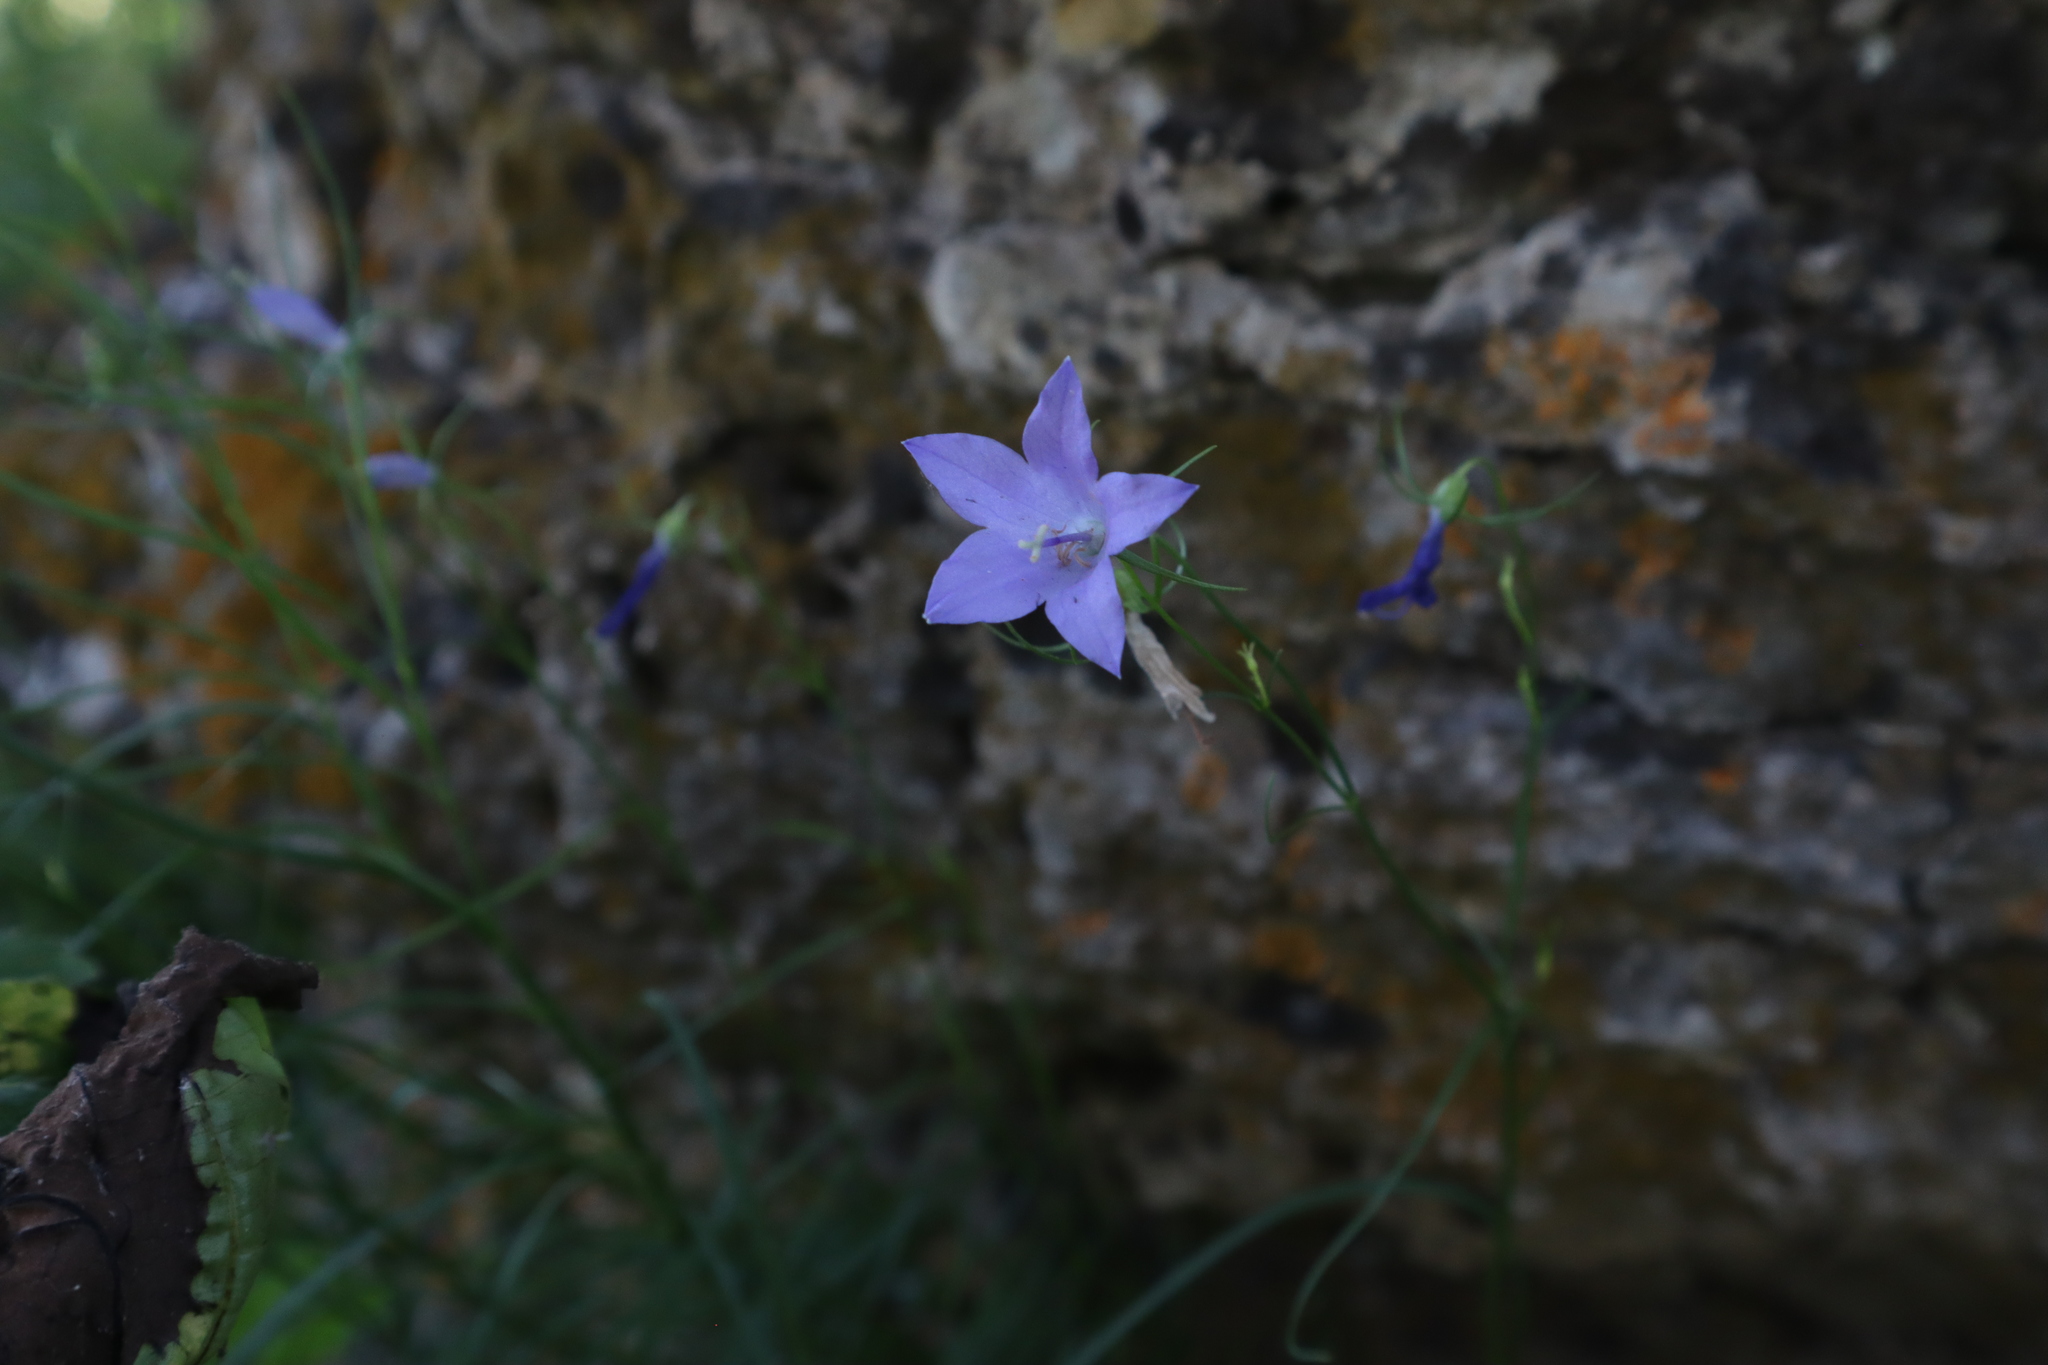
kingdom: Plantae
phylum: Tracheophyta
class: Magnoliopsida
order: Asterales
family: Campanulaceae
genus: Campanula
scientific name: Campanula intercedens
